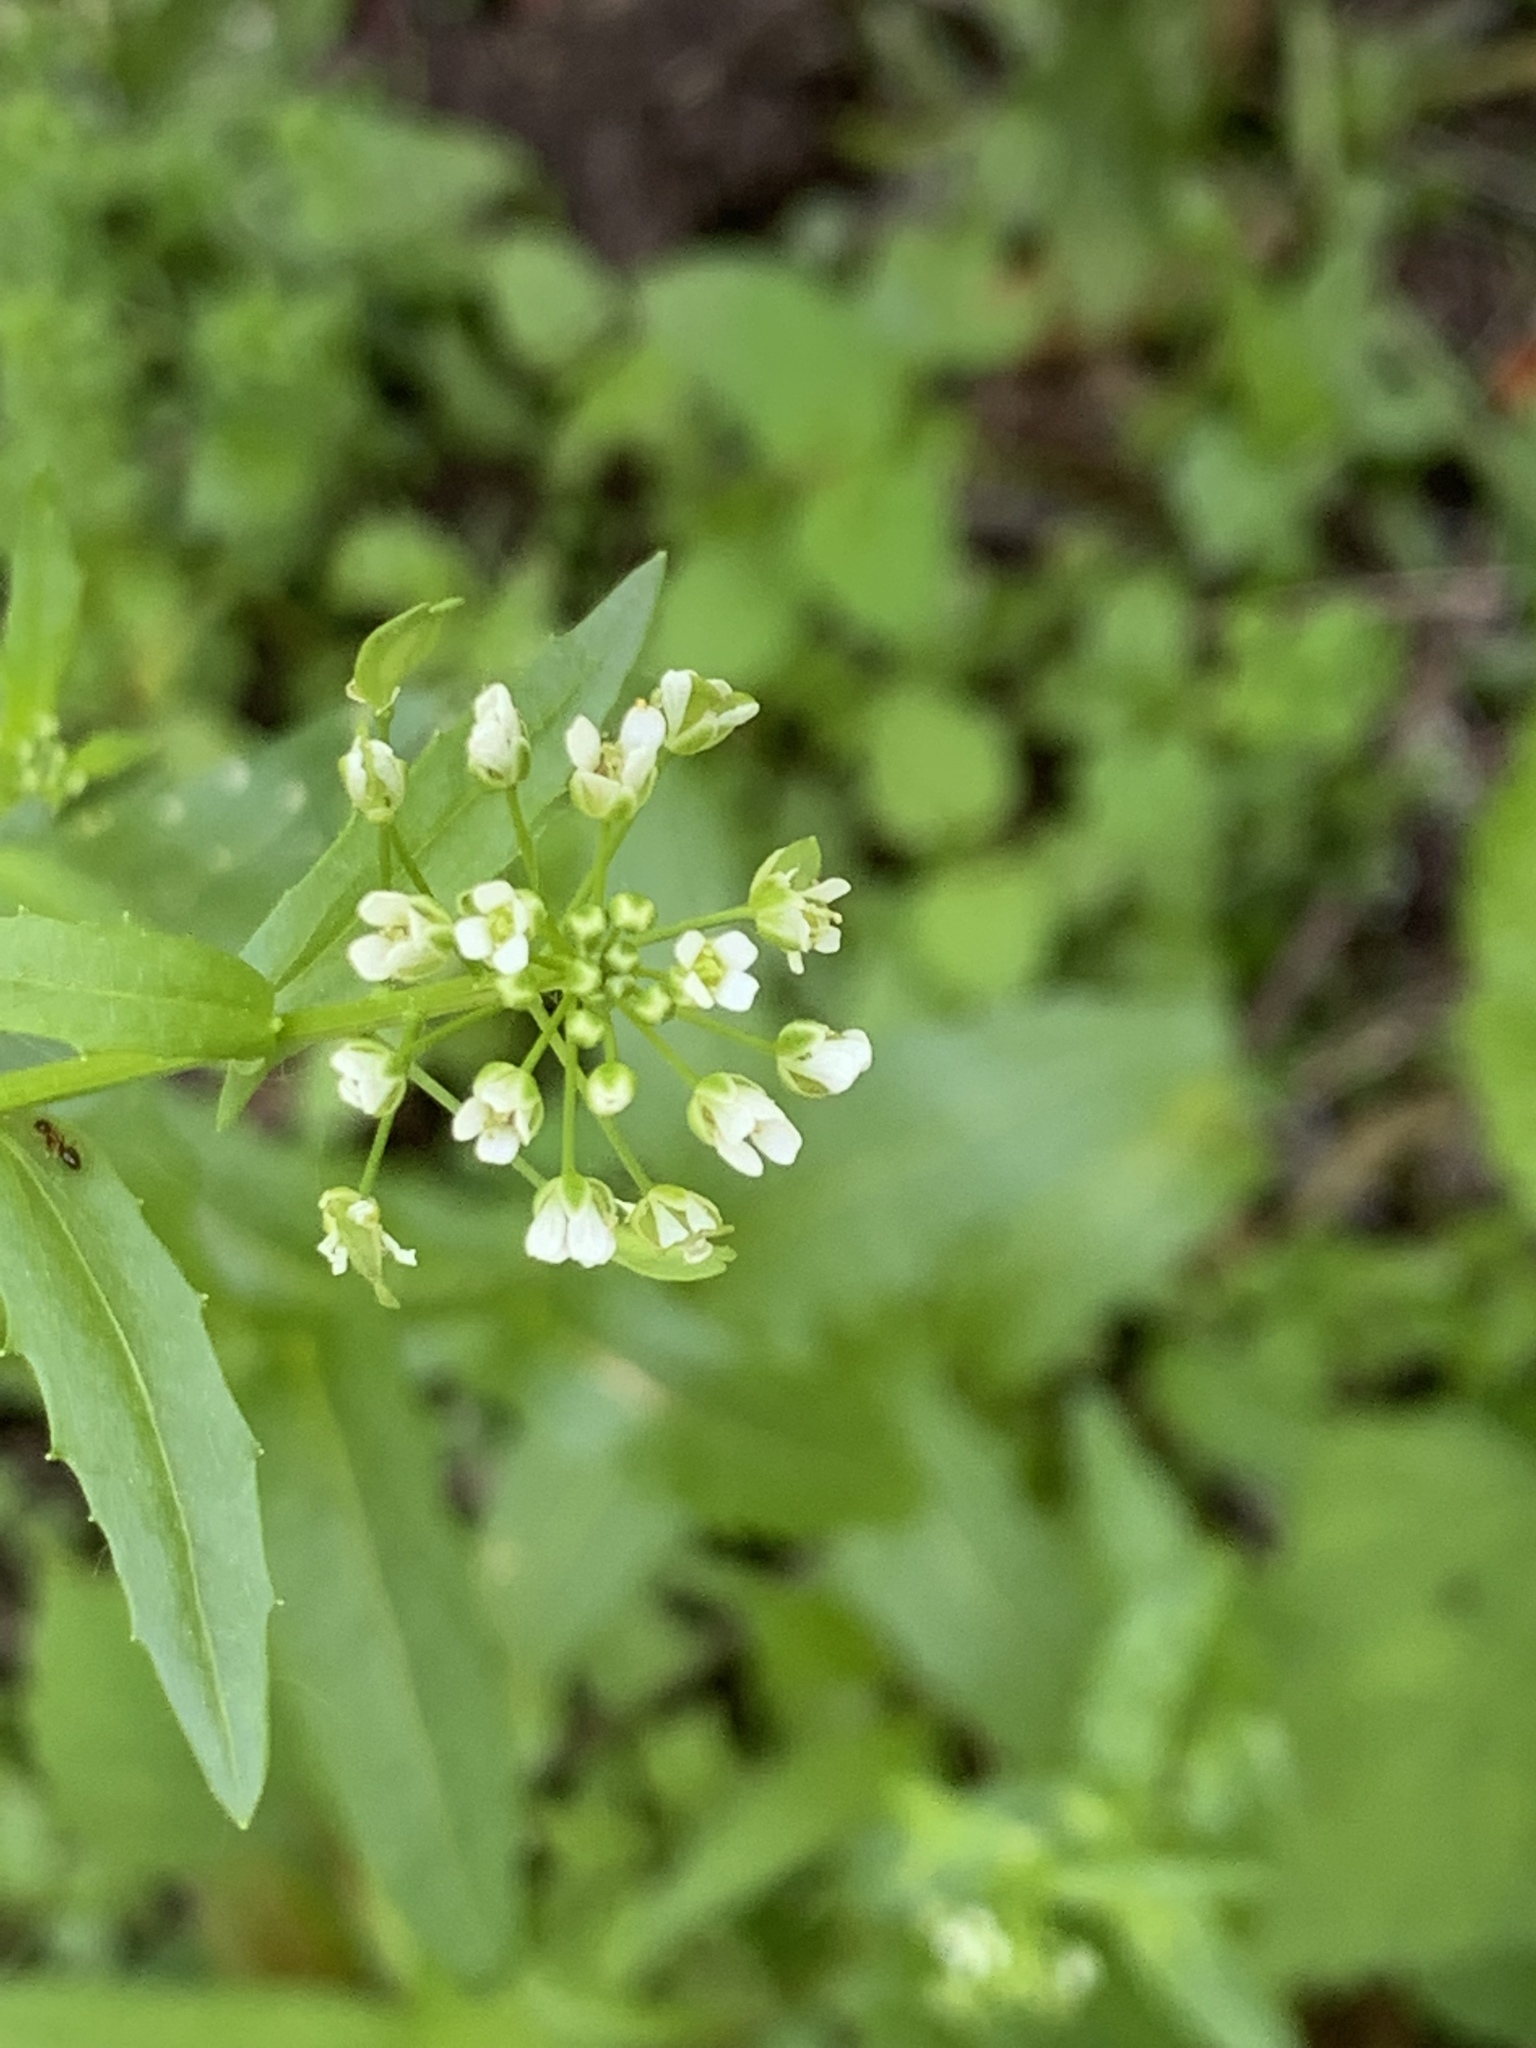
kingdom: Plantae
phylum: Tracheophyta
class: Magnoliopsida
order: Brassicales
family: Brassicaceae
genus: Thlaspi
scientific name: Thlaspi arvense
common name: Field pennycress
